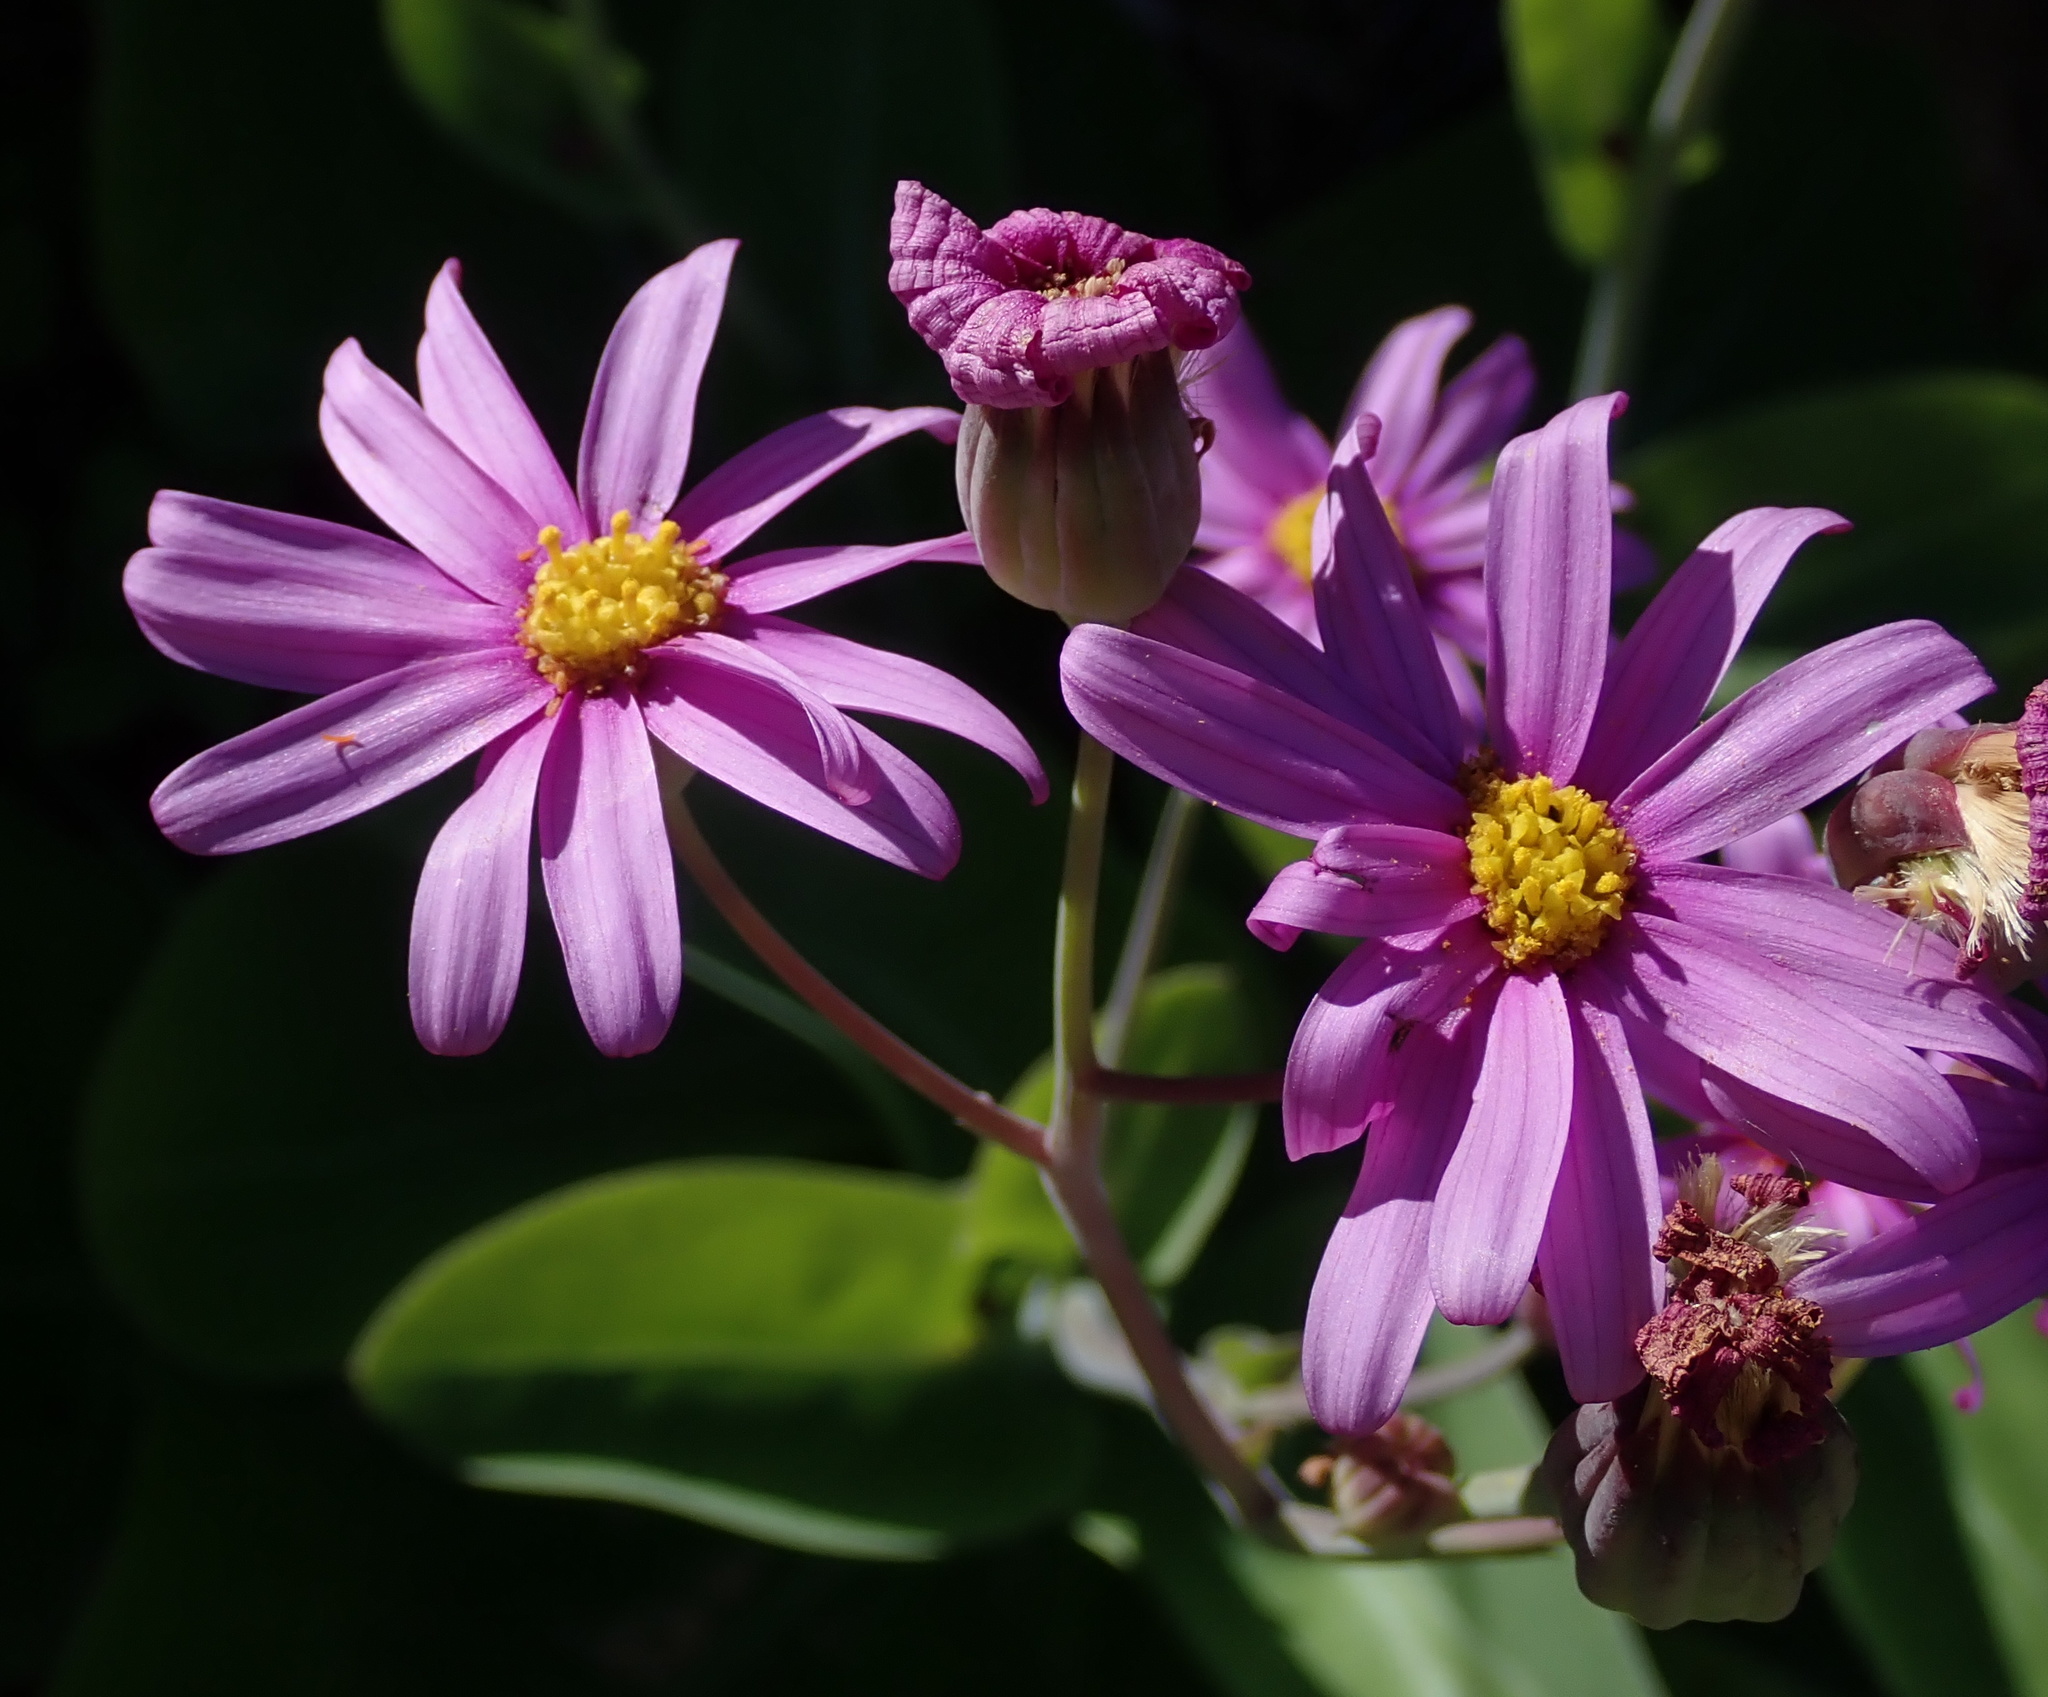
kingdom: Plantae
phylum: Tracheophyta
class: Magnoliopsida
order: Asterales
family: Asteraceae
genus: Othonna
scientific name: Othonna rosea
